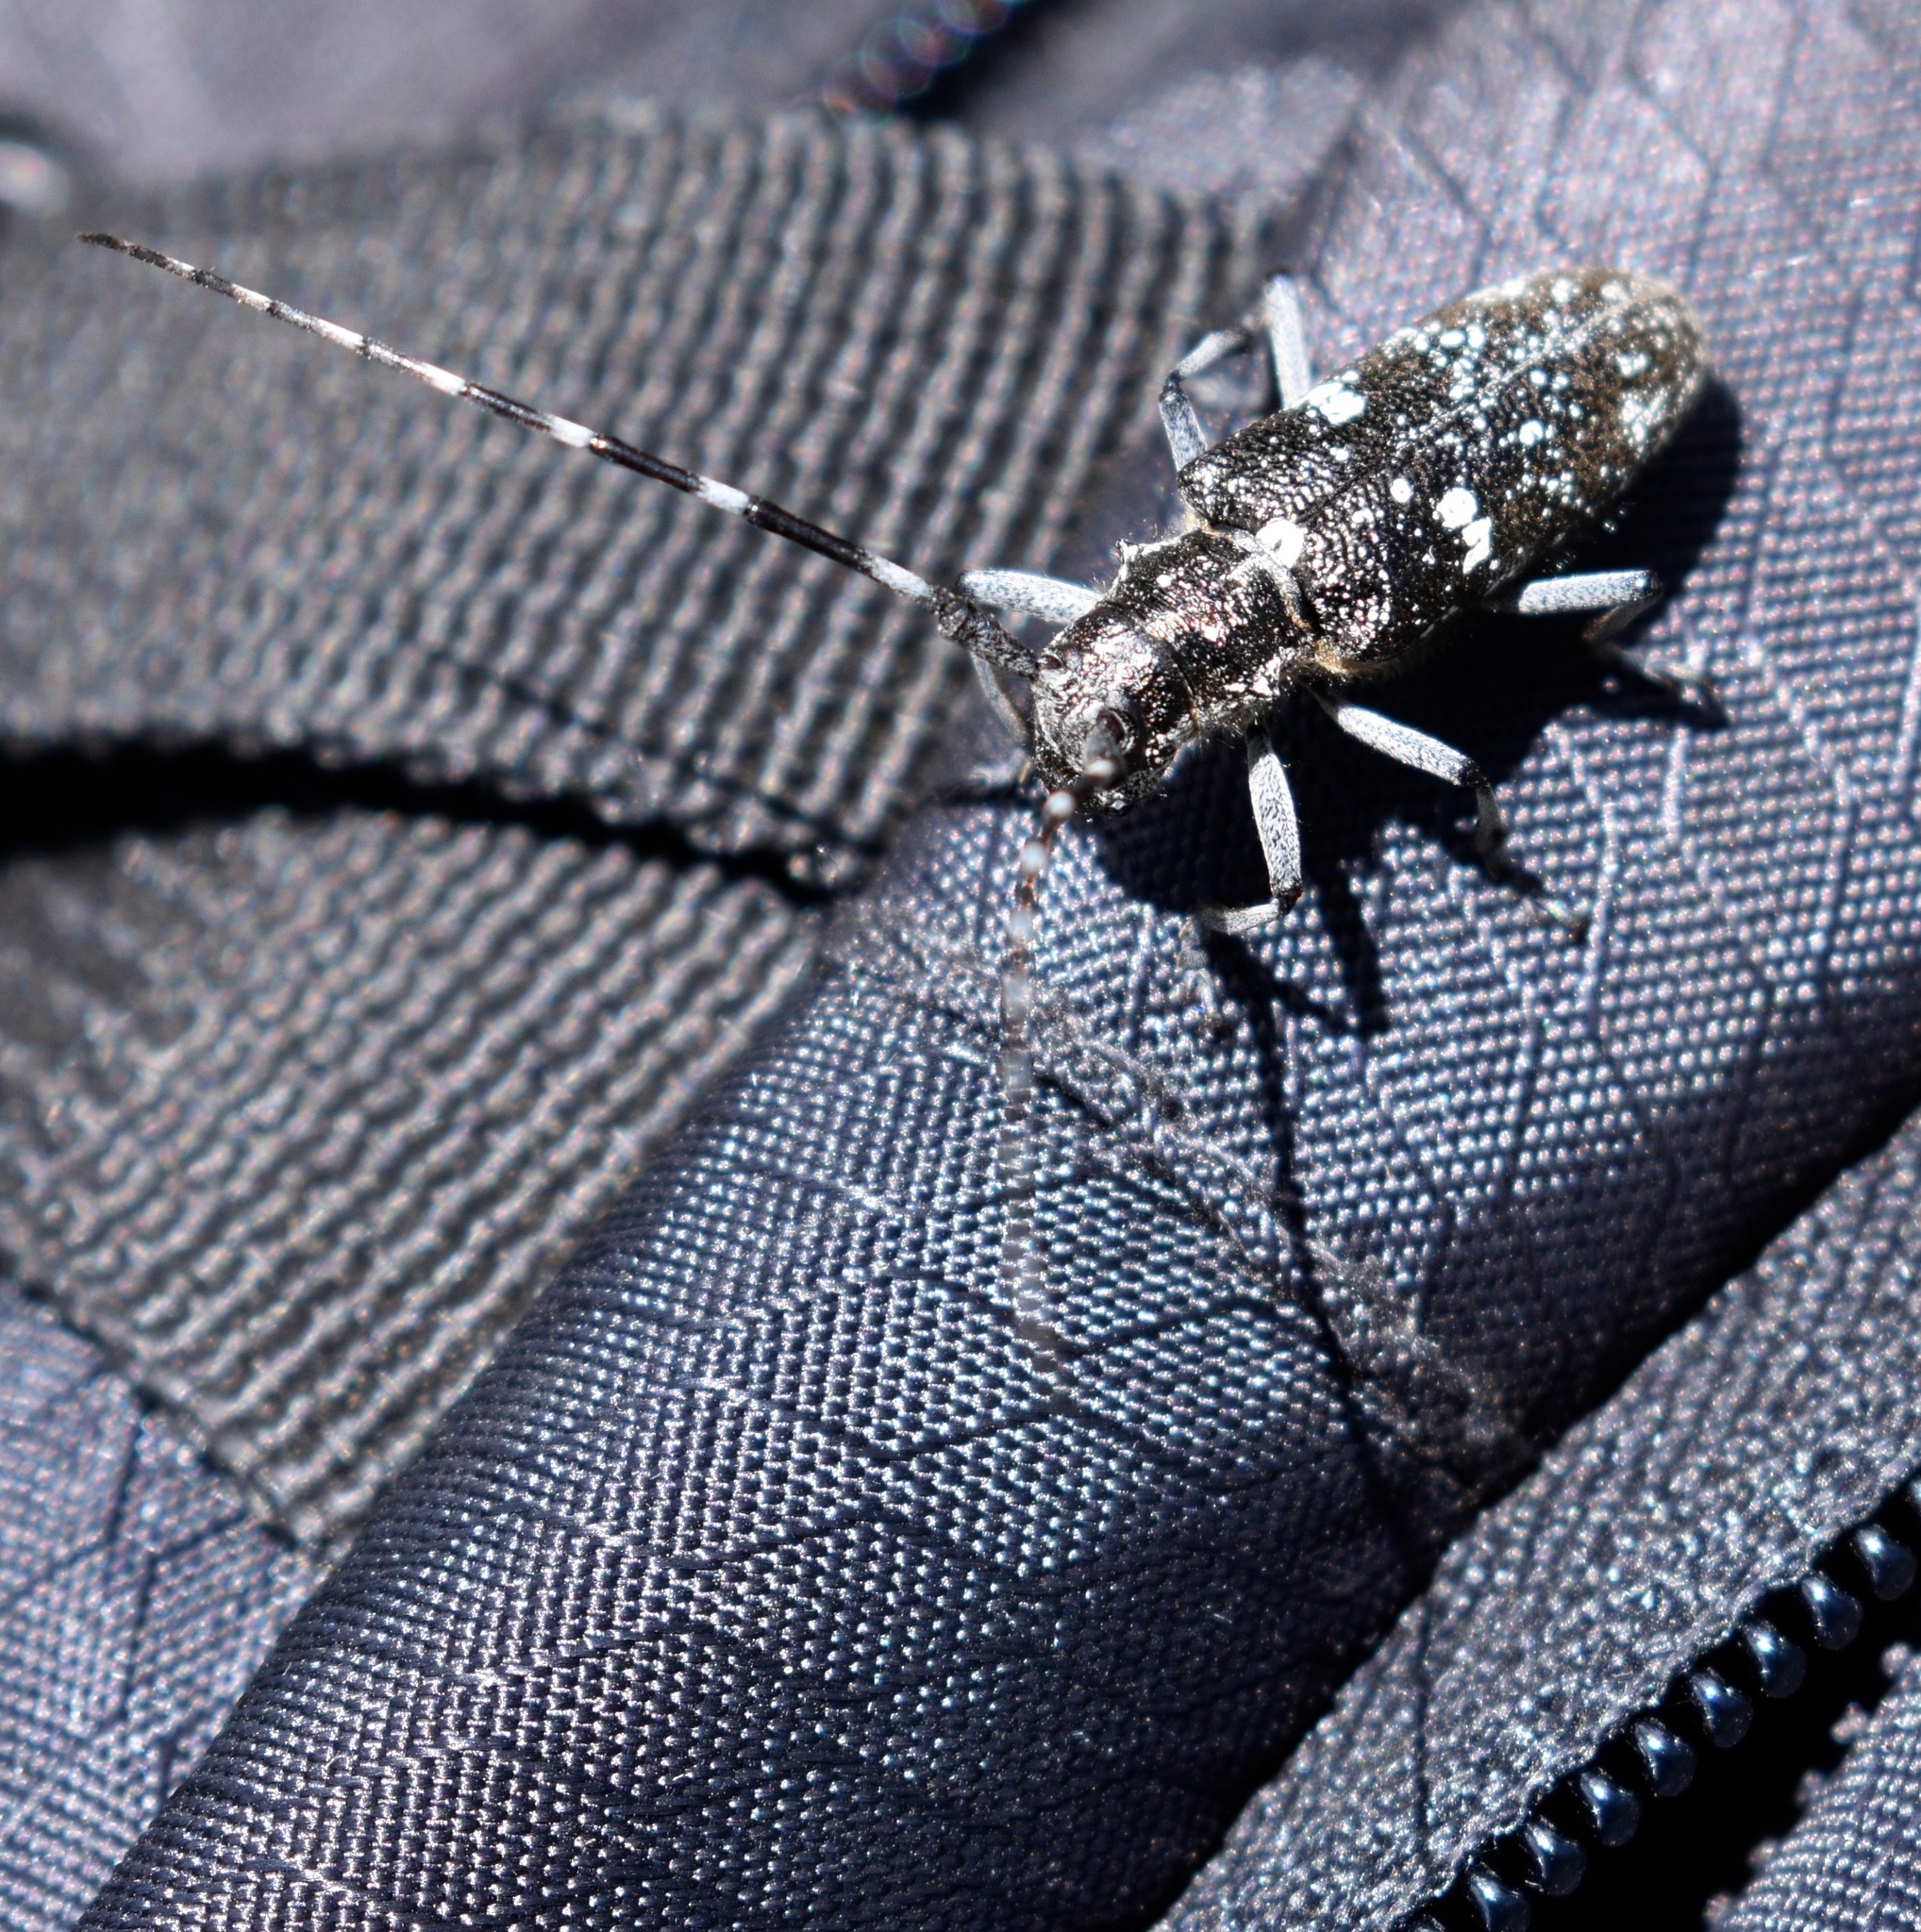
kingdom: Animalia
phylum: Arthropoda
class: Insecta
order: Coleoptera
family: Cerambycidae
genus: Monochamus
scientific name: Monochamus scutellatus
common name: White-spotted sawyer beetle
